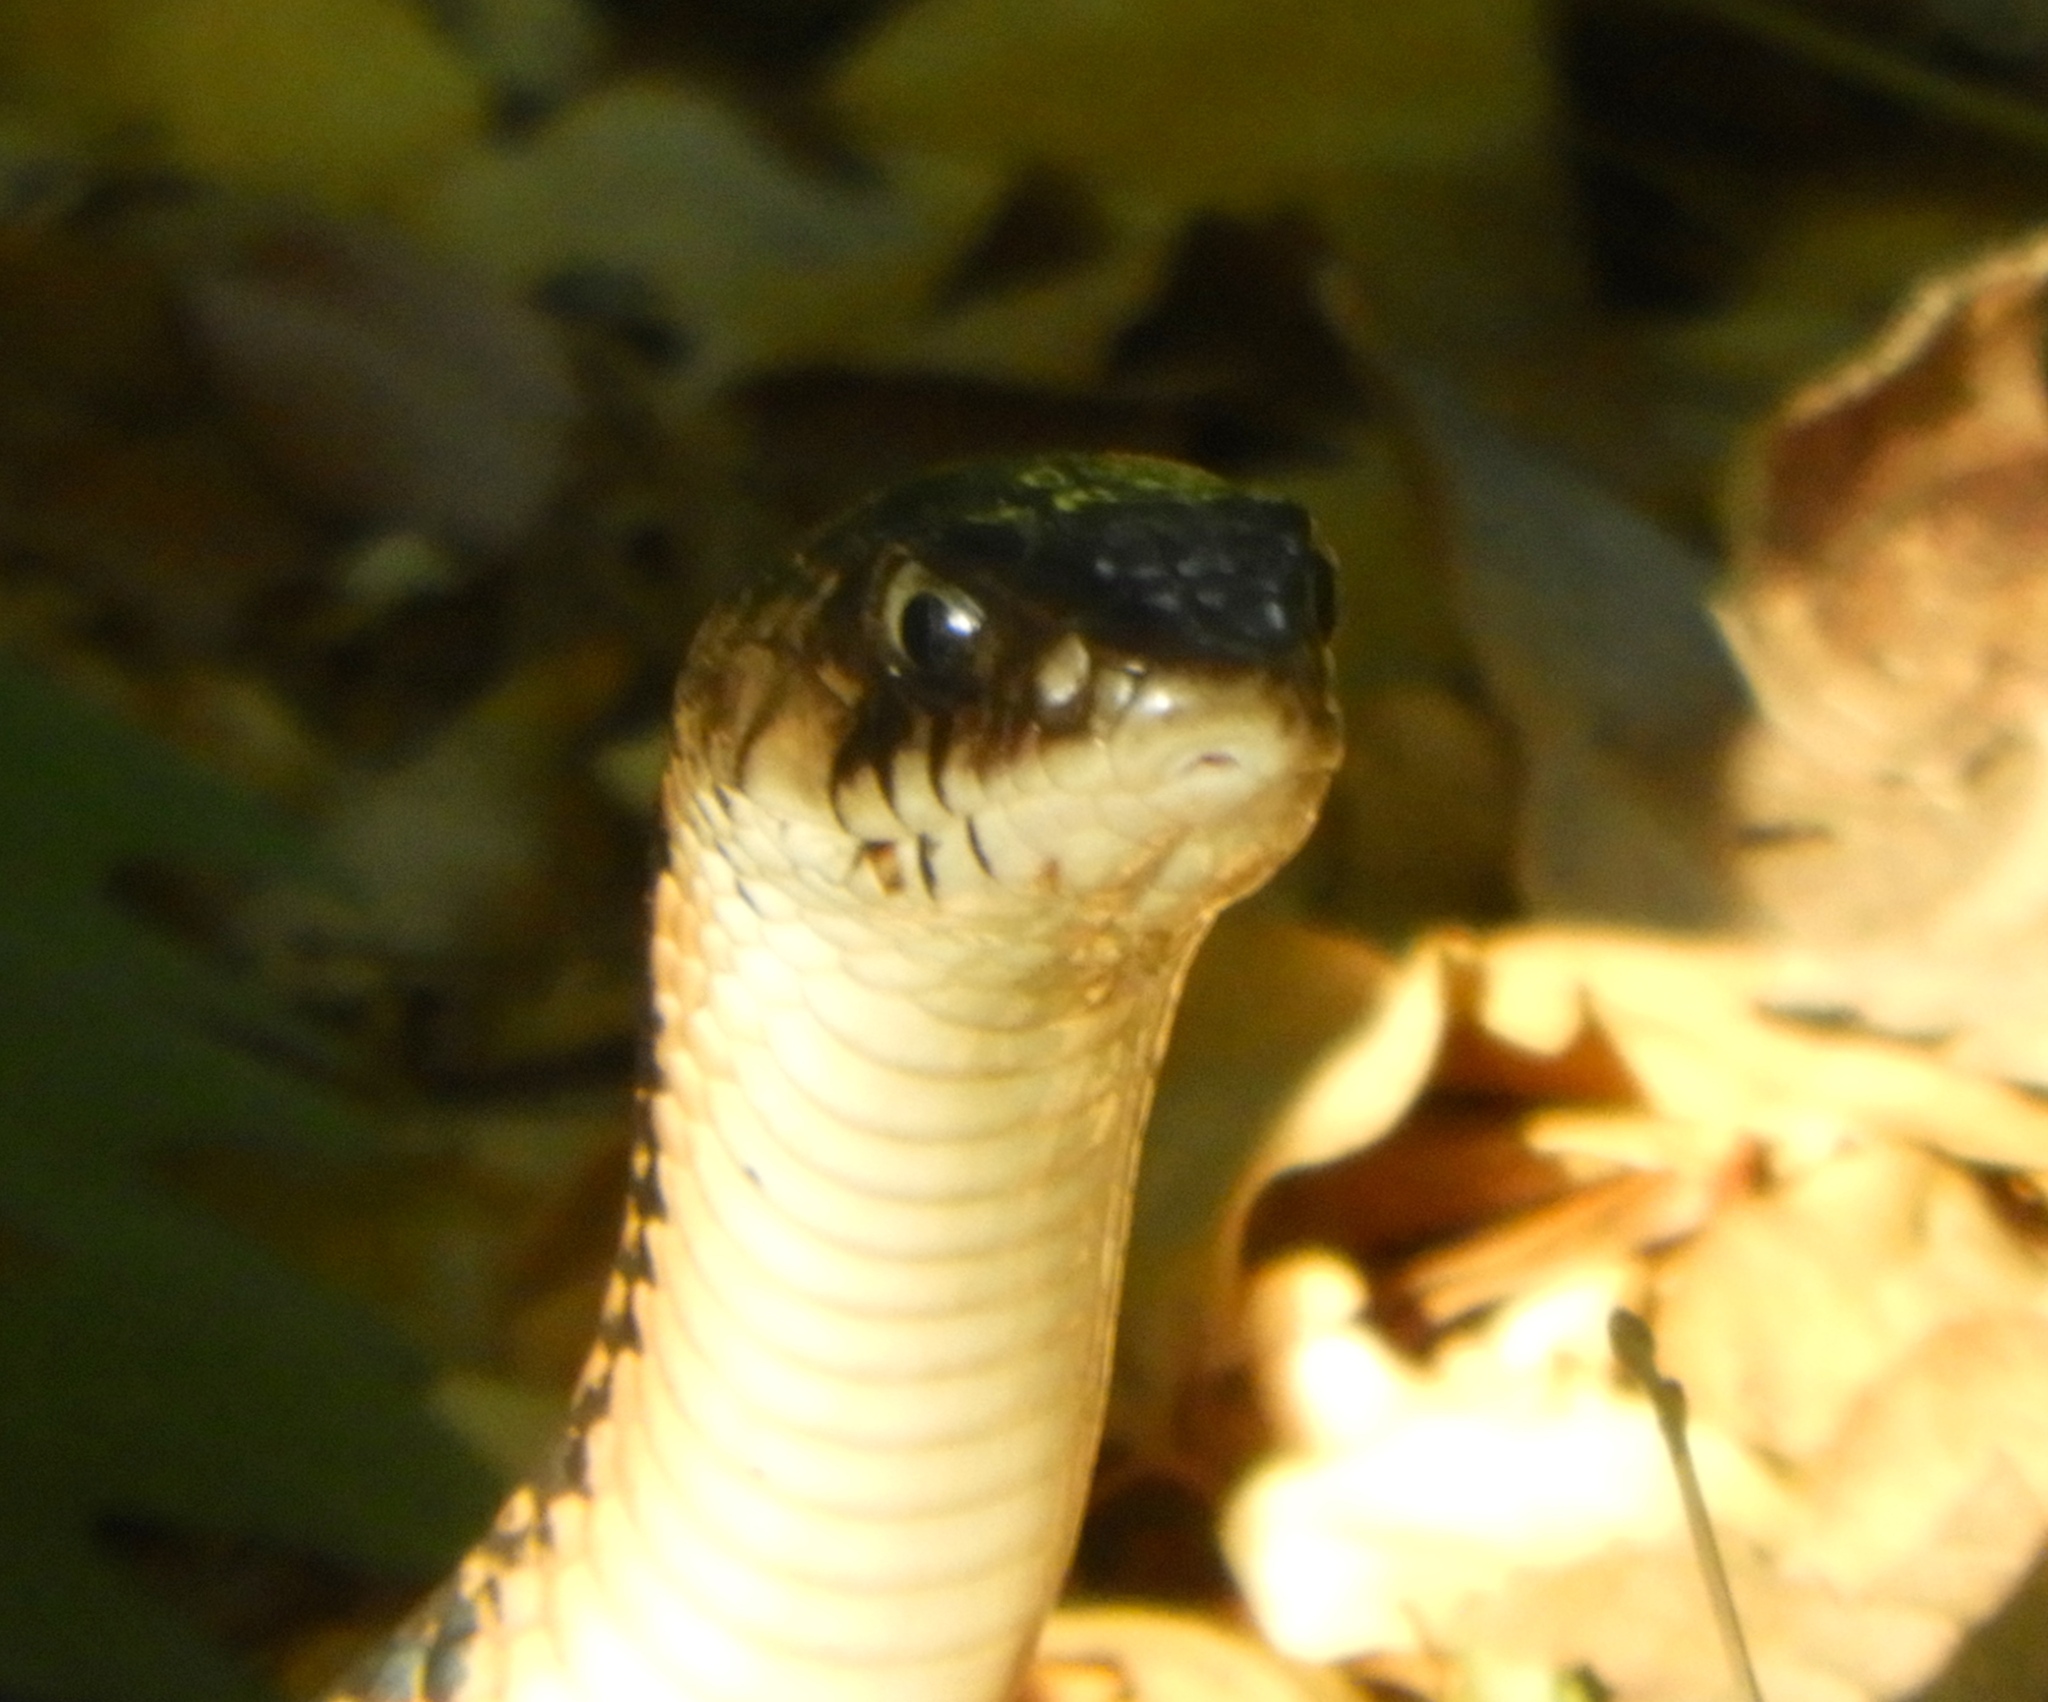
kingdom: Animalia
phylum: Chordata
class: Squamata
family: Colubridae
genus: Drymarchon
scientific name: Drymarchon melanurus
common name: Central american indigo snake
